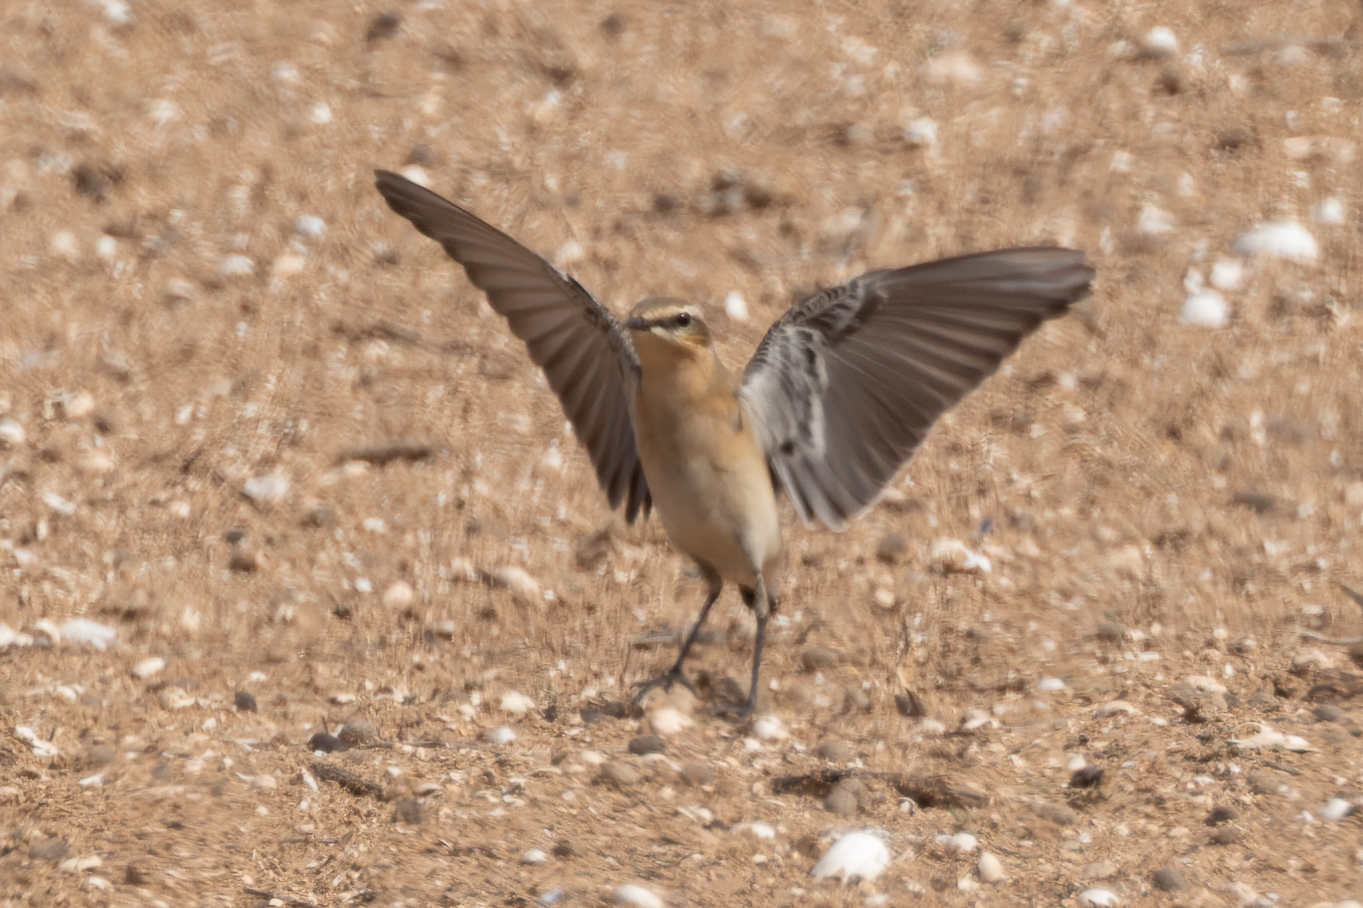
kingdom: Animalia
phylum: Chordata
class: Aves
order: Passeriformes
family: Muscicapidae
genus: Oenanthe
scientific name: Oenanthe oenanthe
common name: Northern wheatear
